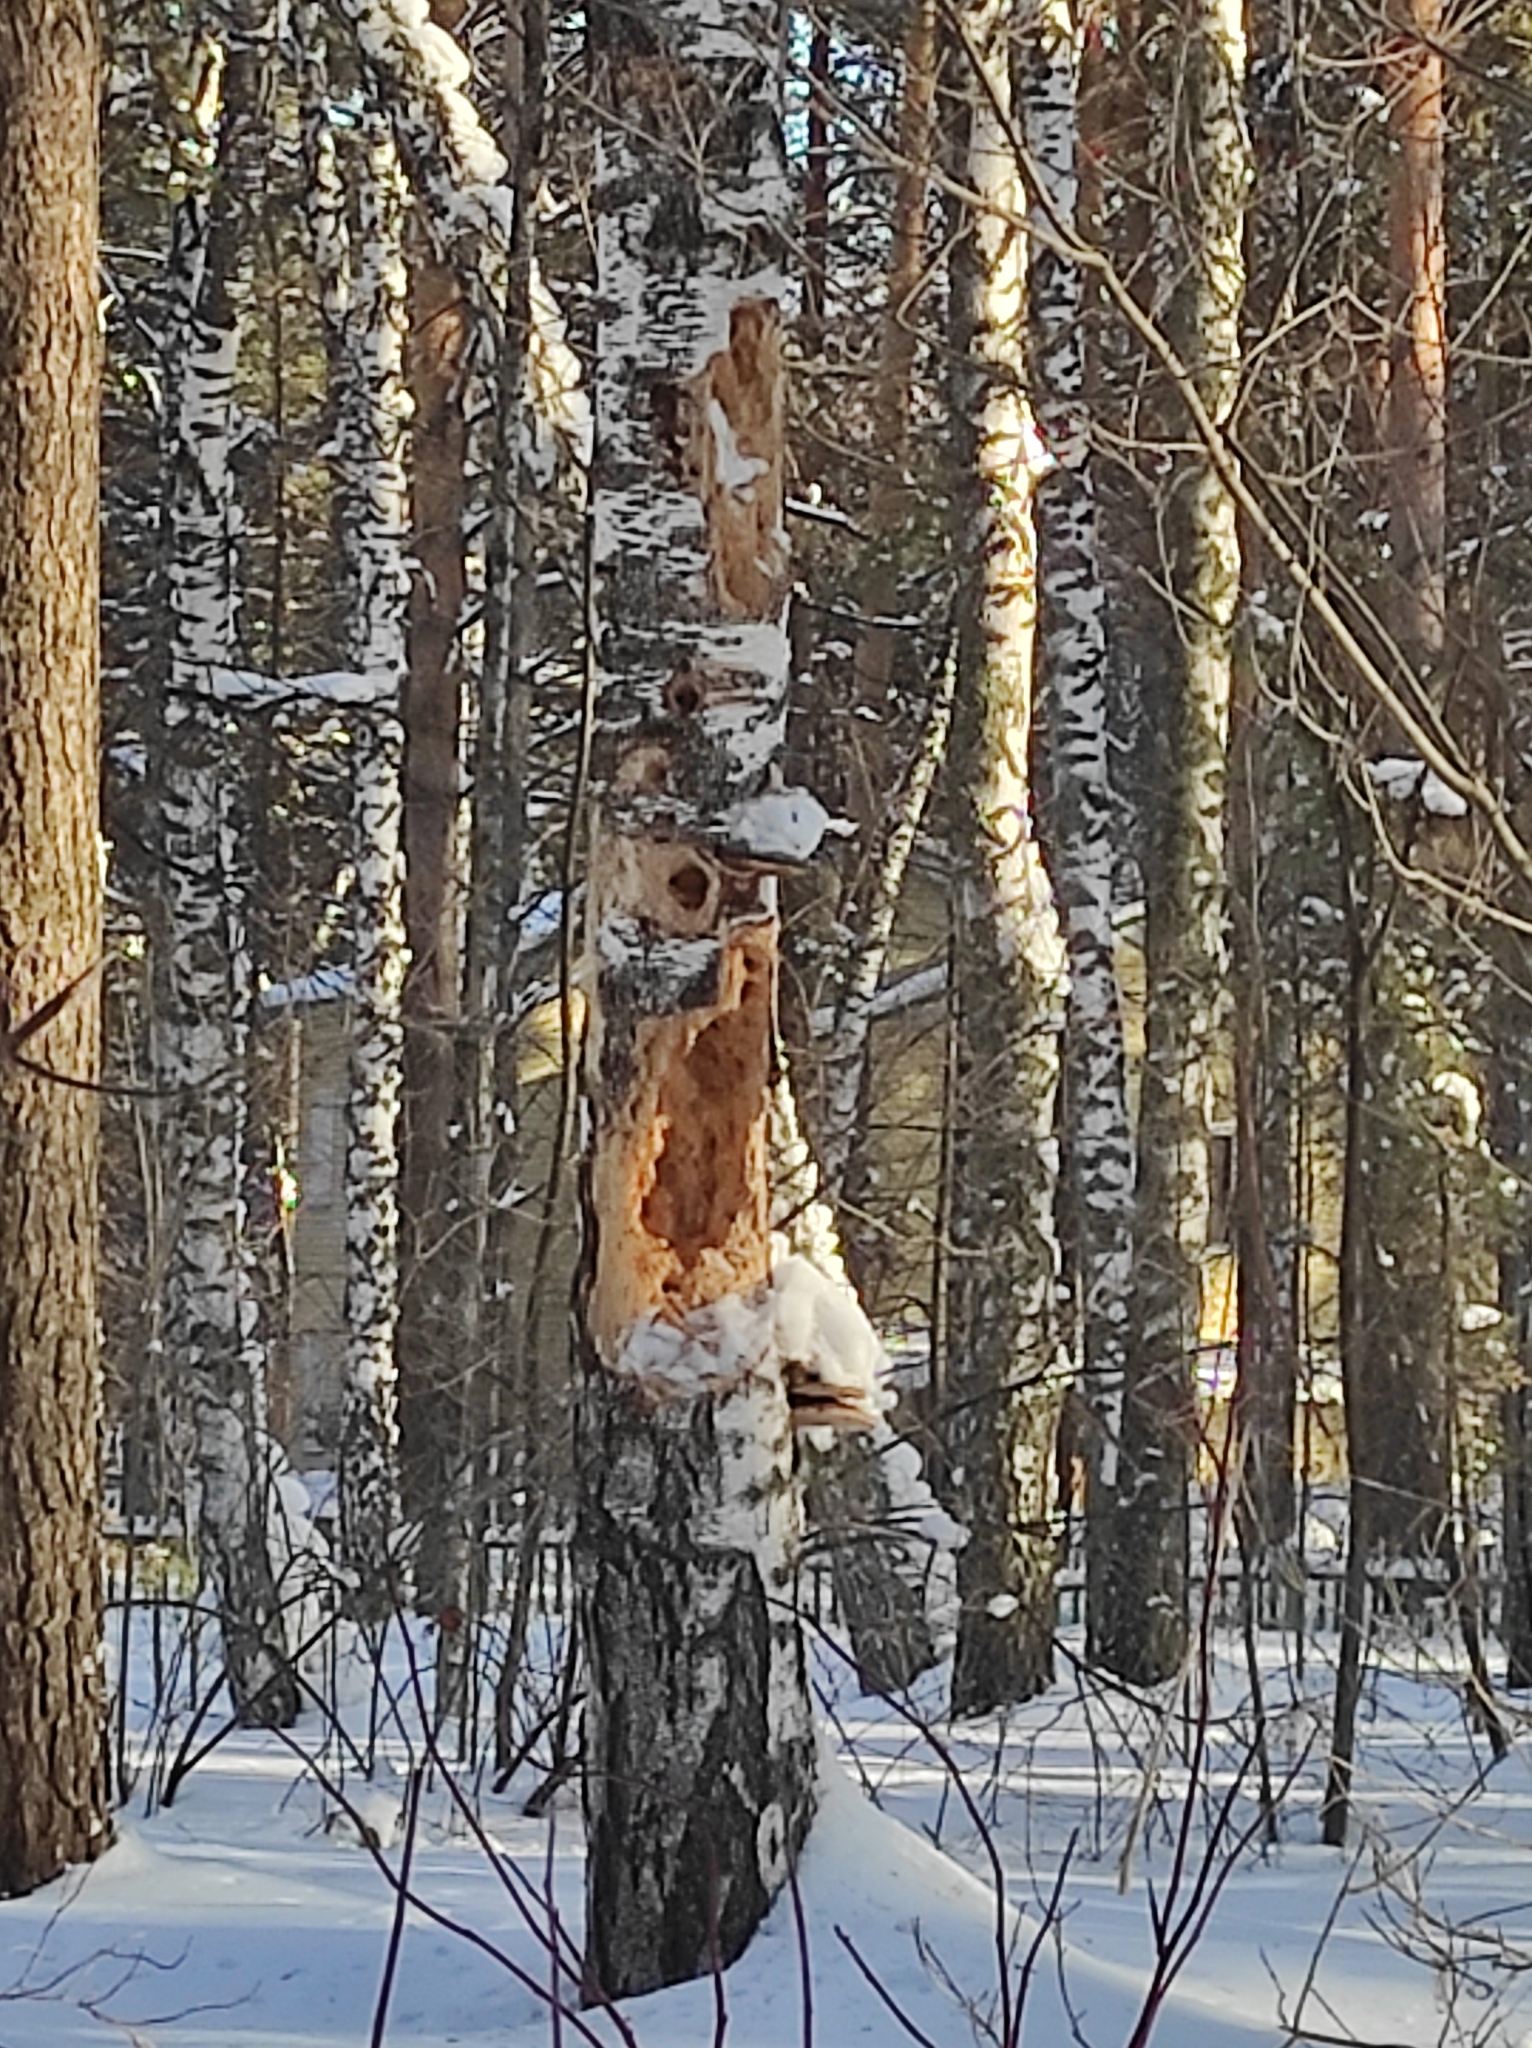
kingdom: Plantae
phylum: Tracheophyta
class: Magnoliopsida
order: Fagales
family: Betulaceae
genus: Betula
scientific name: Betula pendula
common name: Silver birch
